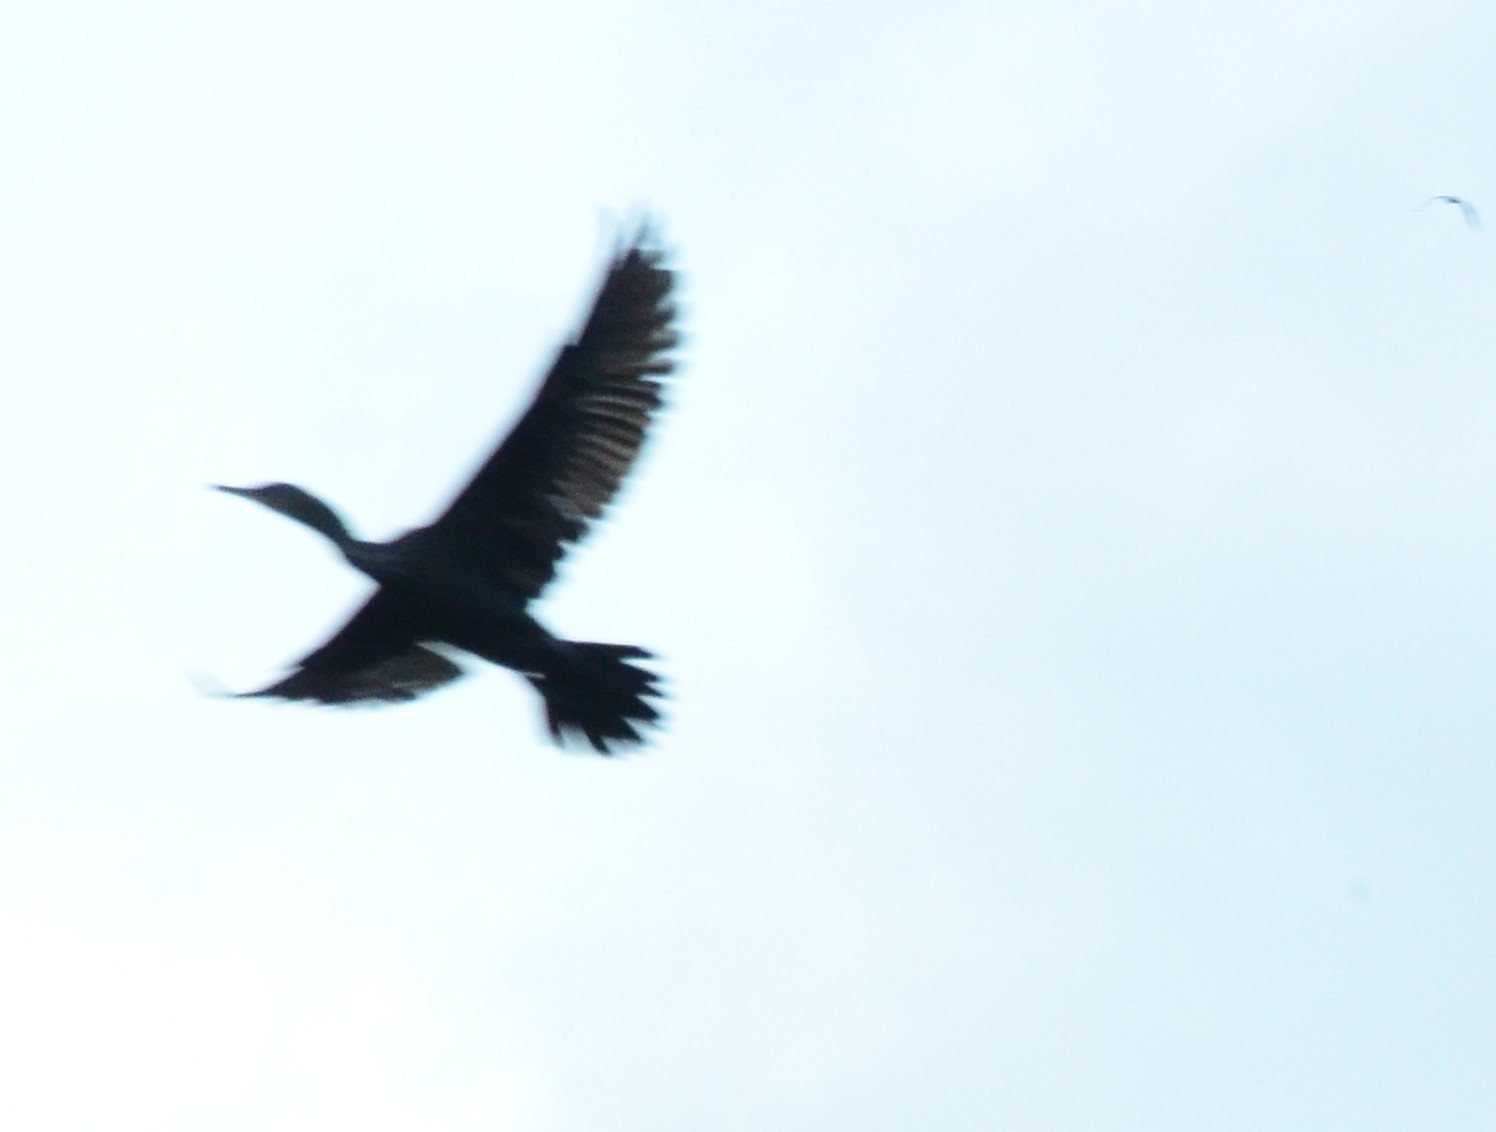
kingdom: Animalia
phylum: Chordata
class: Aves
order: Suliformes
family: Phalacrocoracidae
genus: Phalacrocorax
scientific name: Phalacrocorax fuscicollis
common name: Indian cormorant
